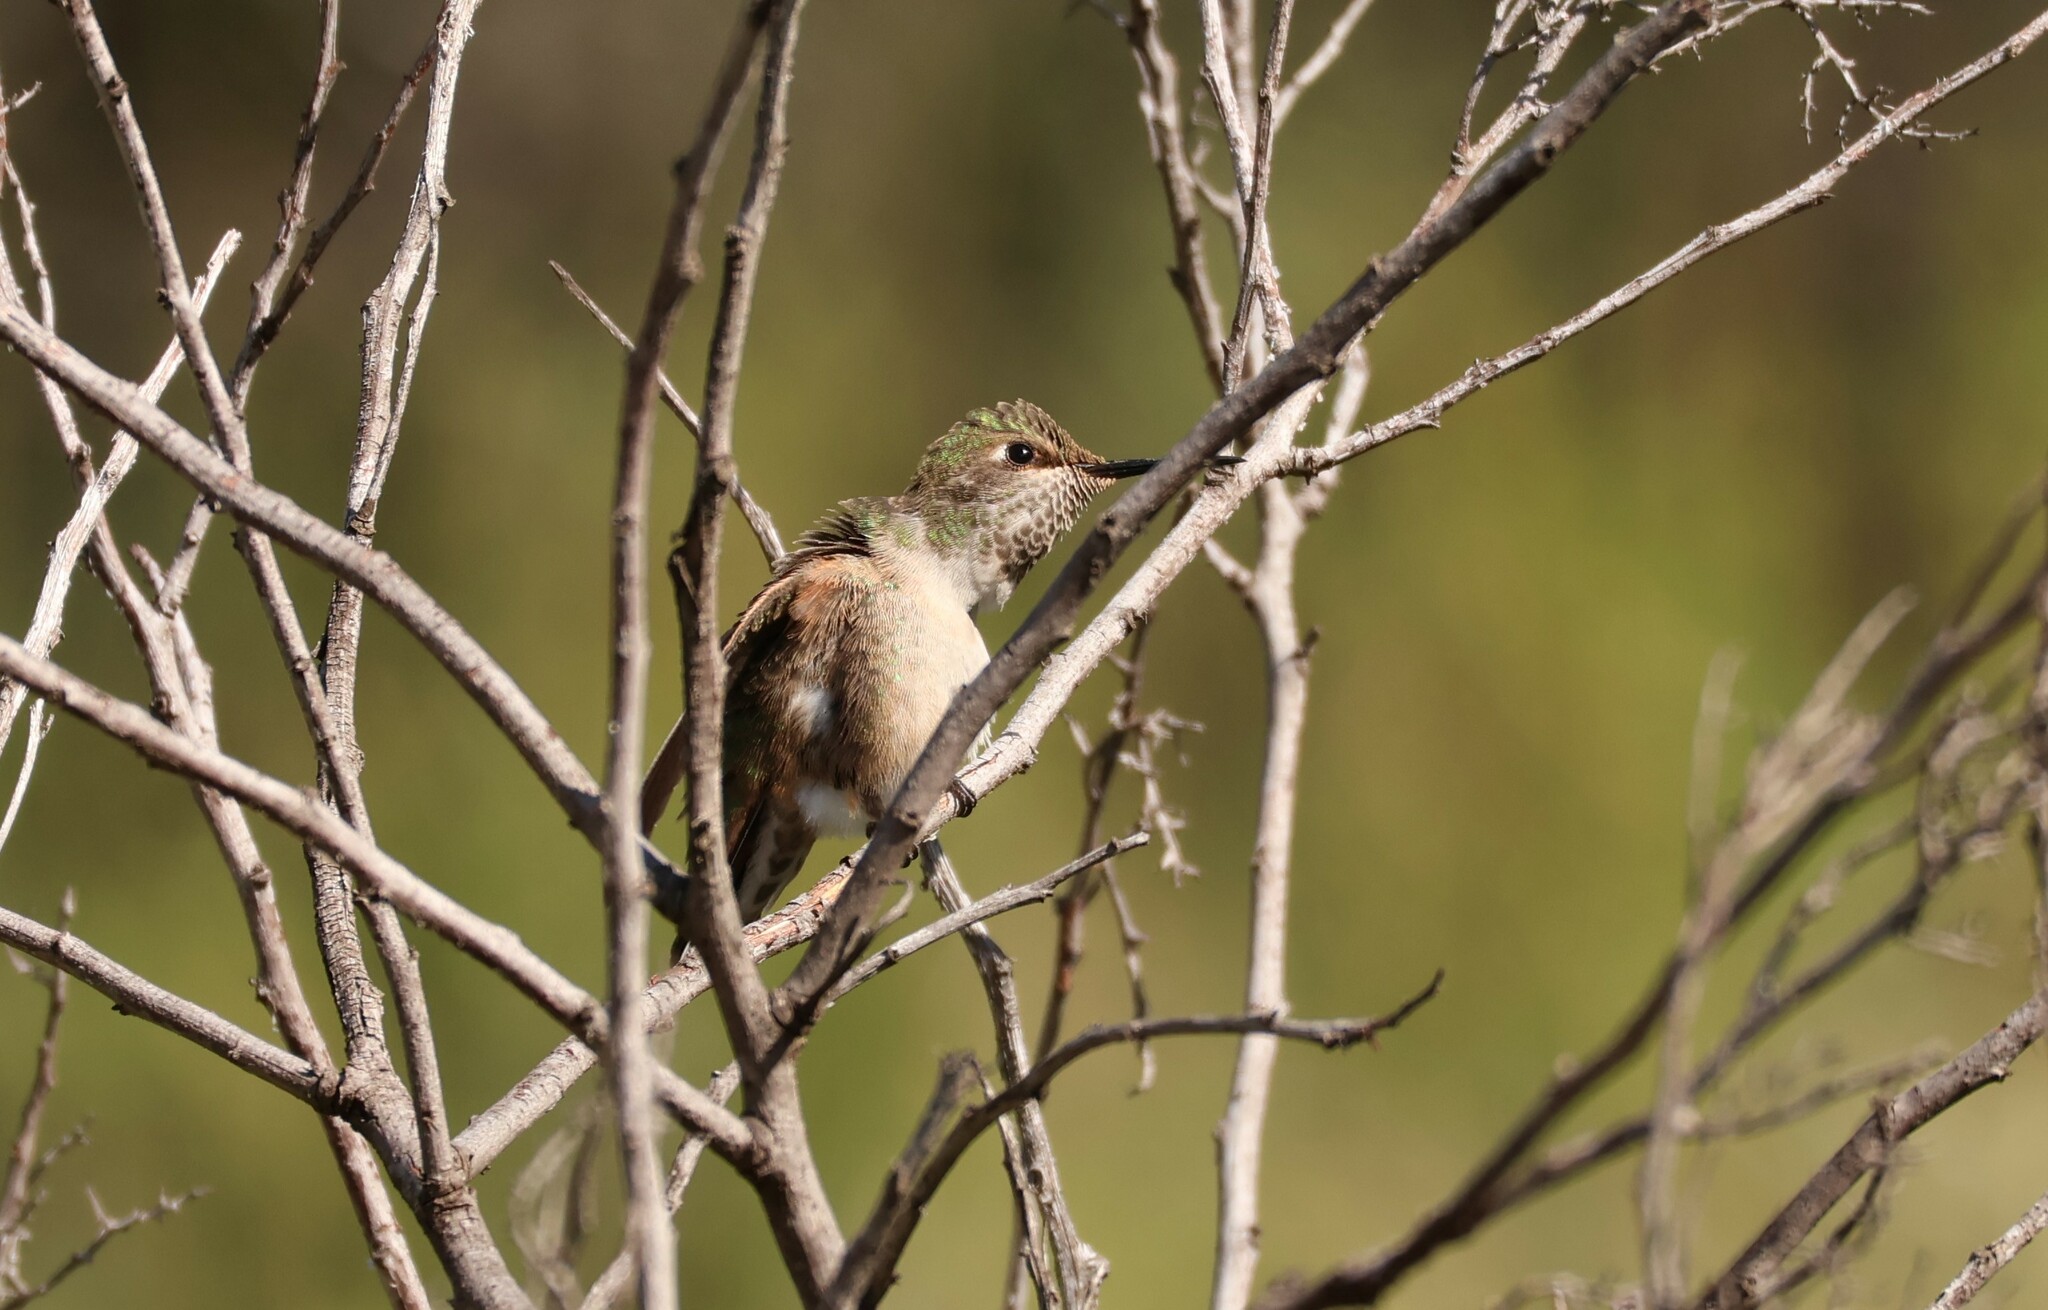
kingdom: Animalia
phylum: Chordata
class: Aves
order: Apodiformes
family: Trochilidae
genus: Selasphorus
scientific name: Selasphorus sasin
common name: Allen's hummingbird
